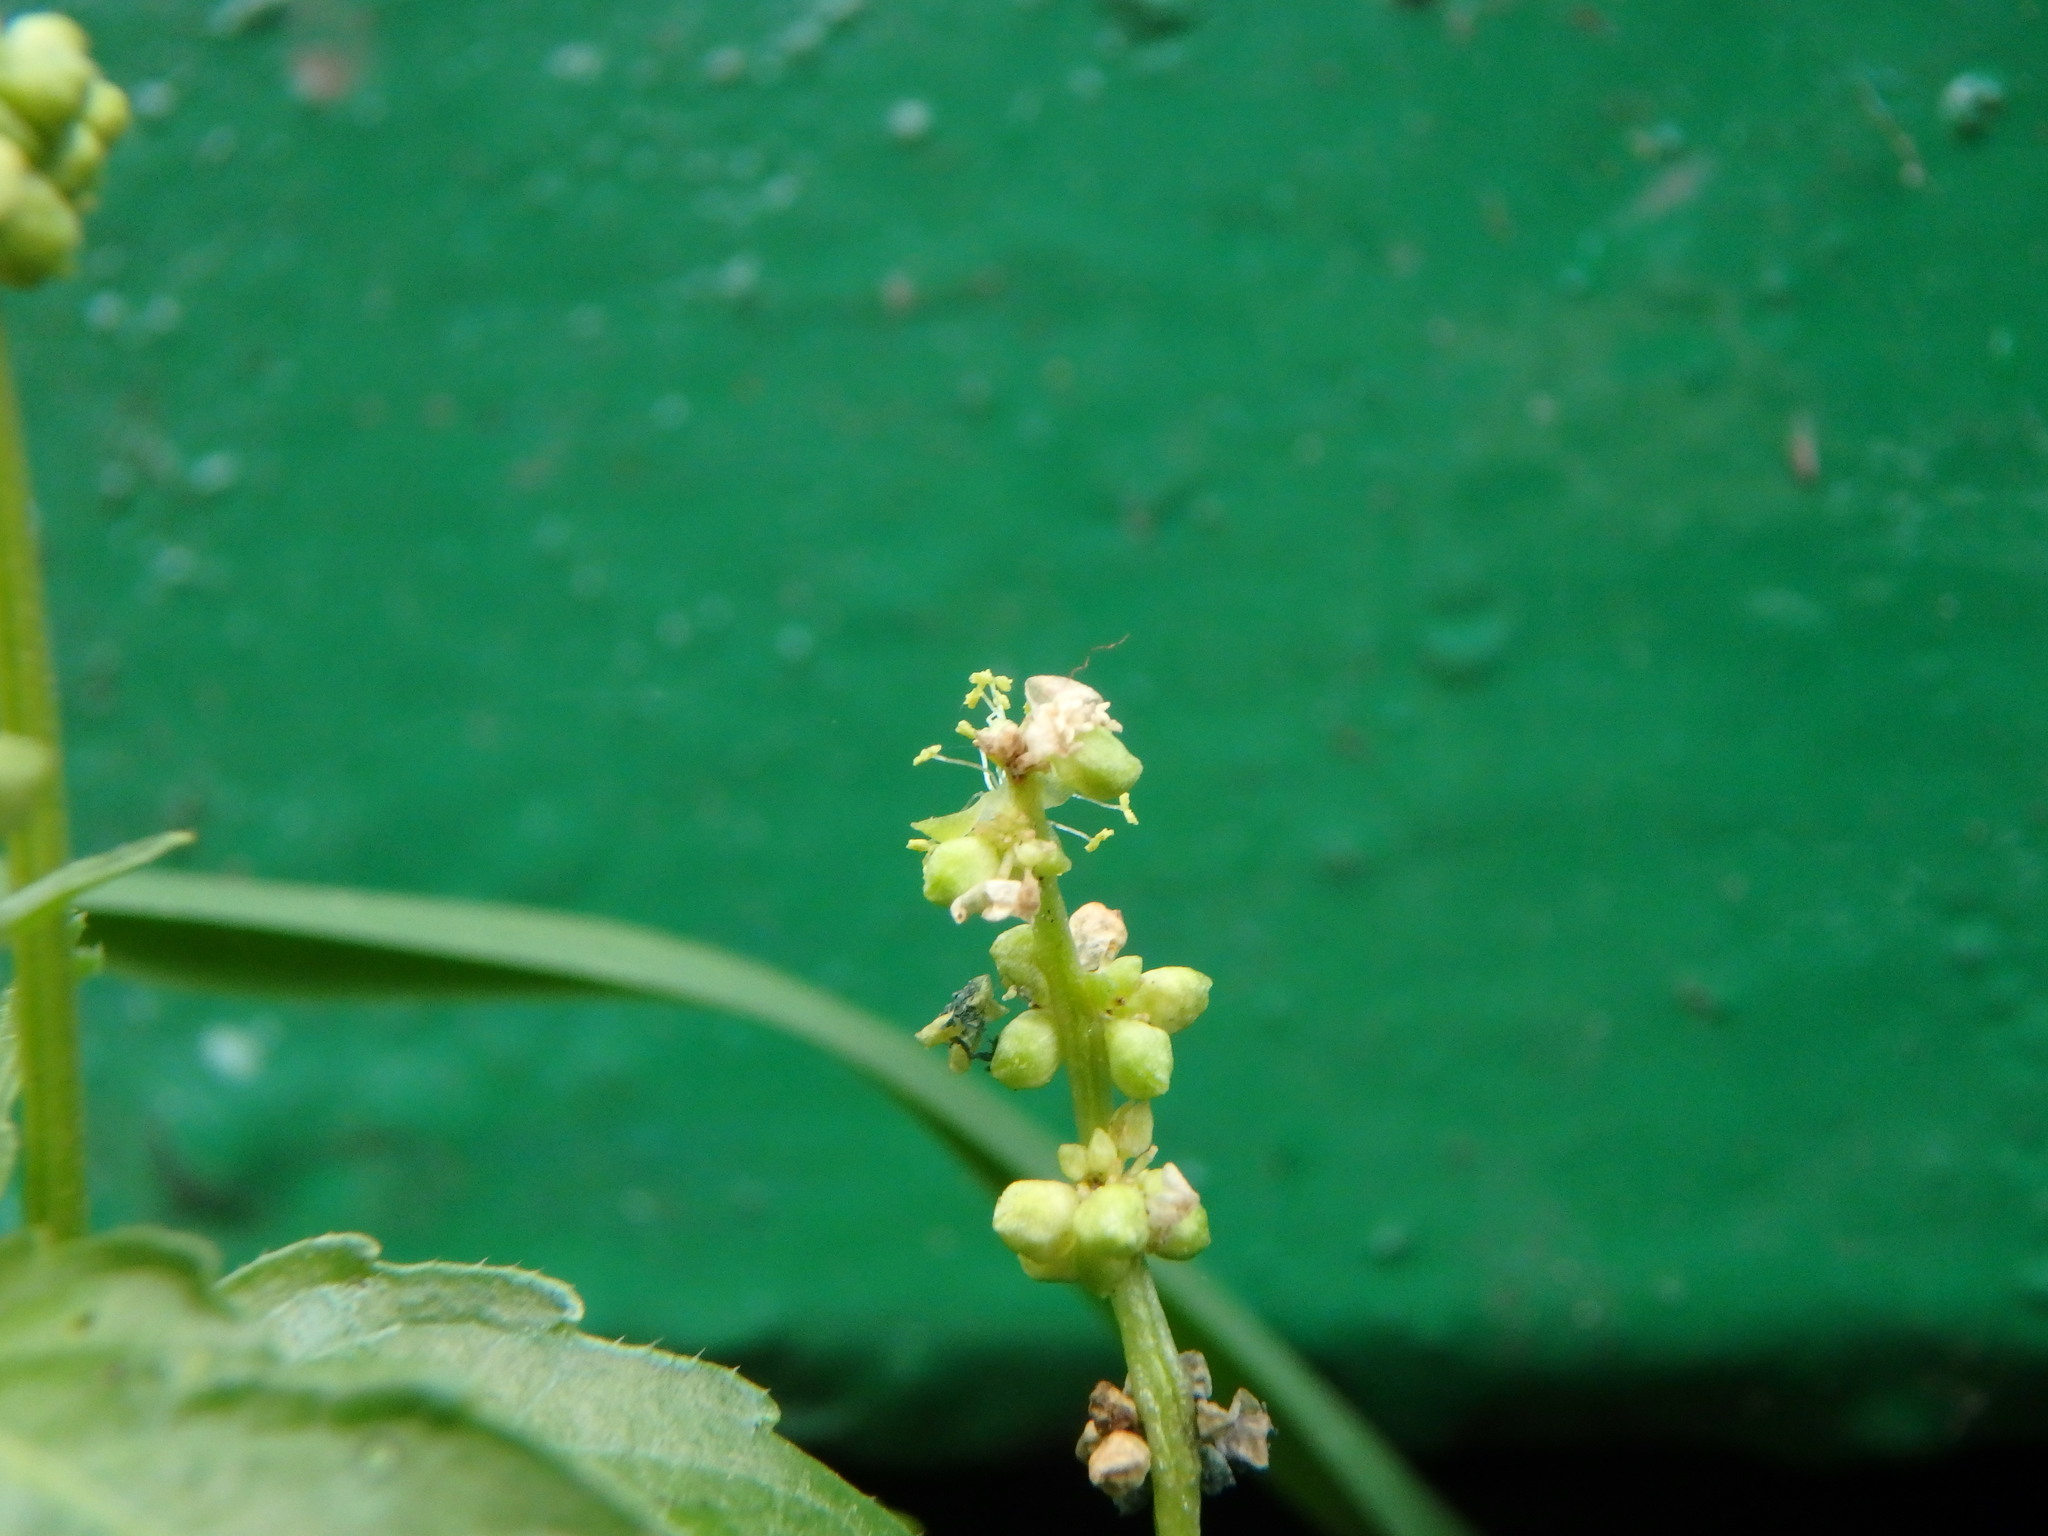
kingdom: Plantae
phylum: Tracheophyta
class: Magnoliopsida
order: Malpighiales
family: Euphorbiaceae
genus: Mercurialis
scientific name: Mercurialis annua
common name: Annual mercury
